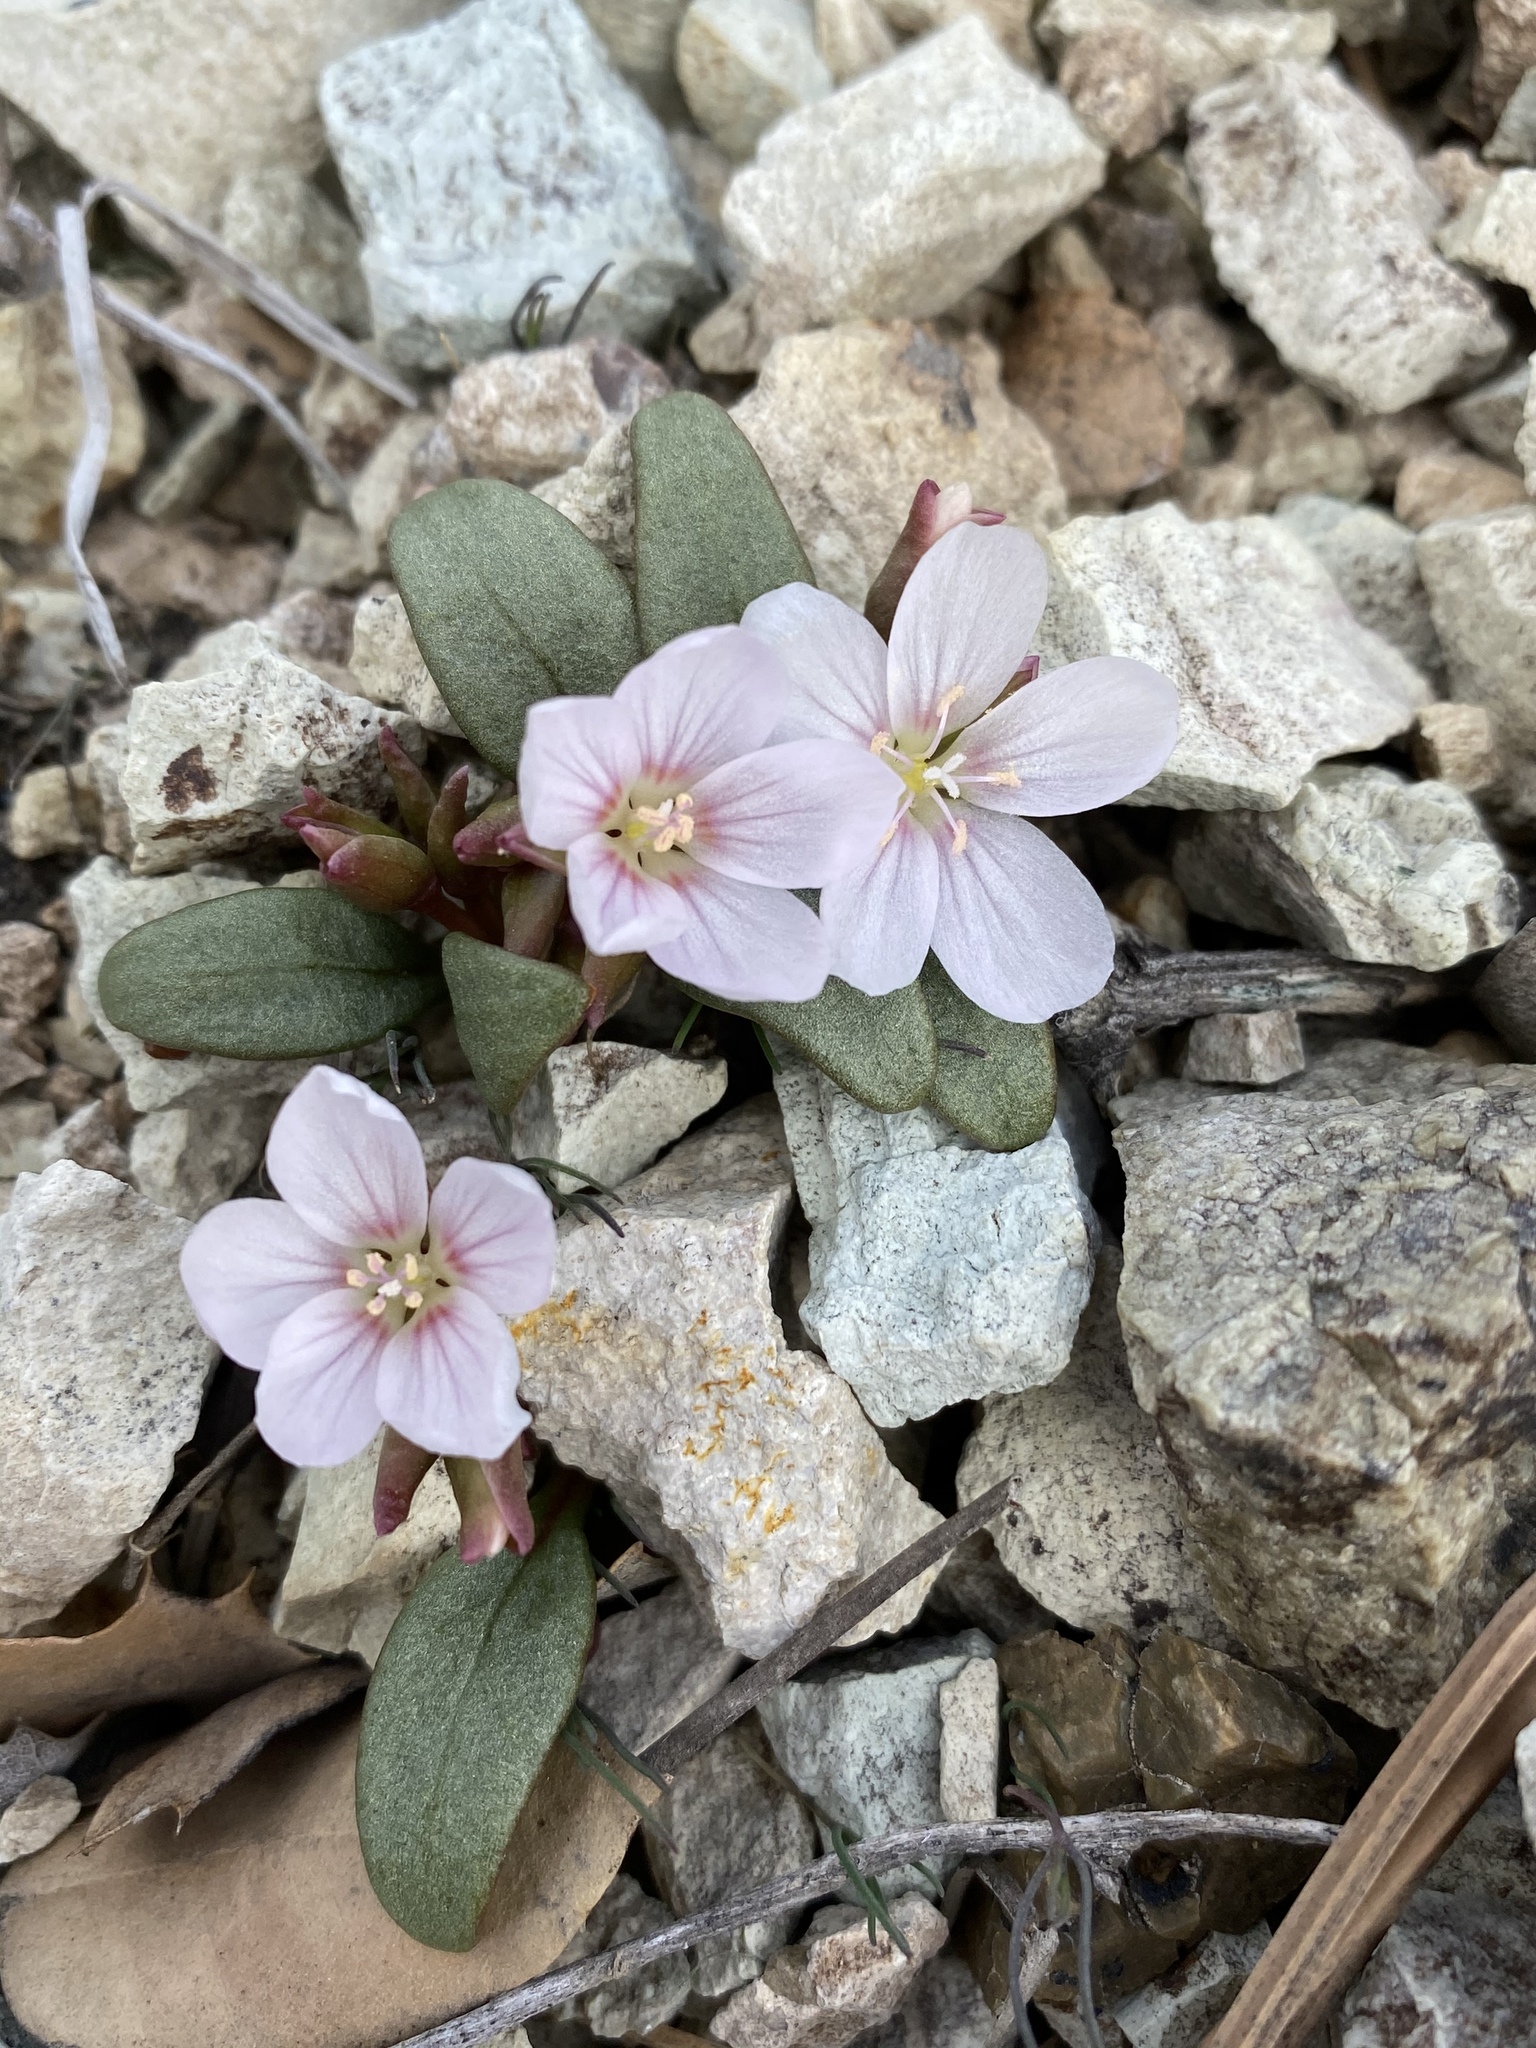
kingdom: Plantae
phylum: Tracheophyta
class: Magnoliopsida
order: Caryophyllales
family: Montiaceae
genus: Claytonia
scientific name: Claytonia peirsonii
